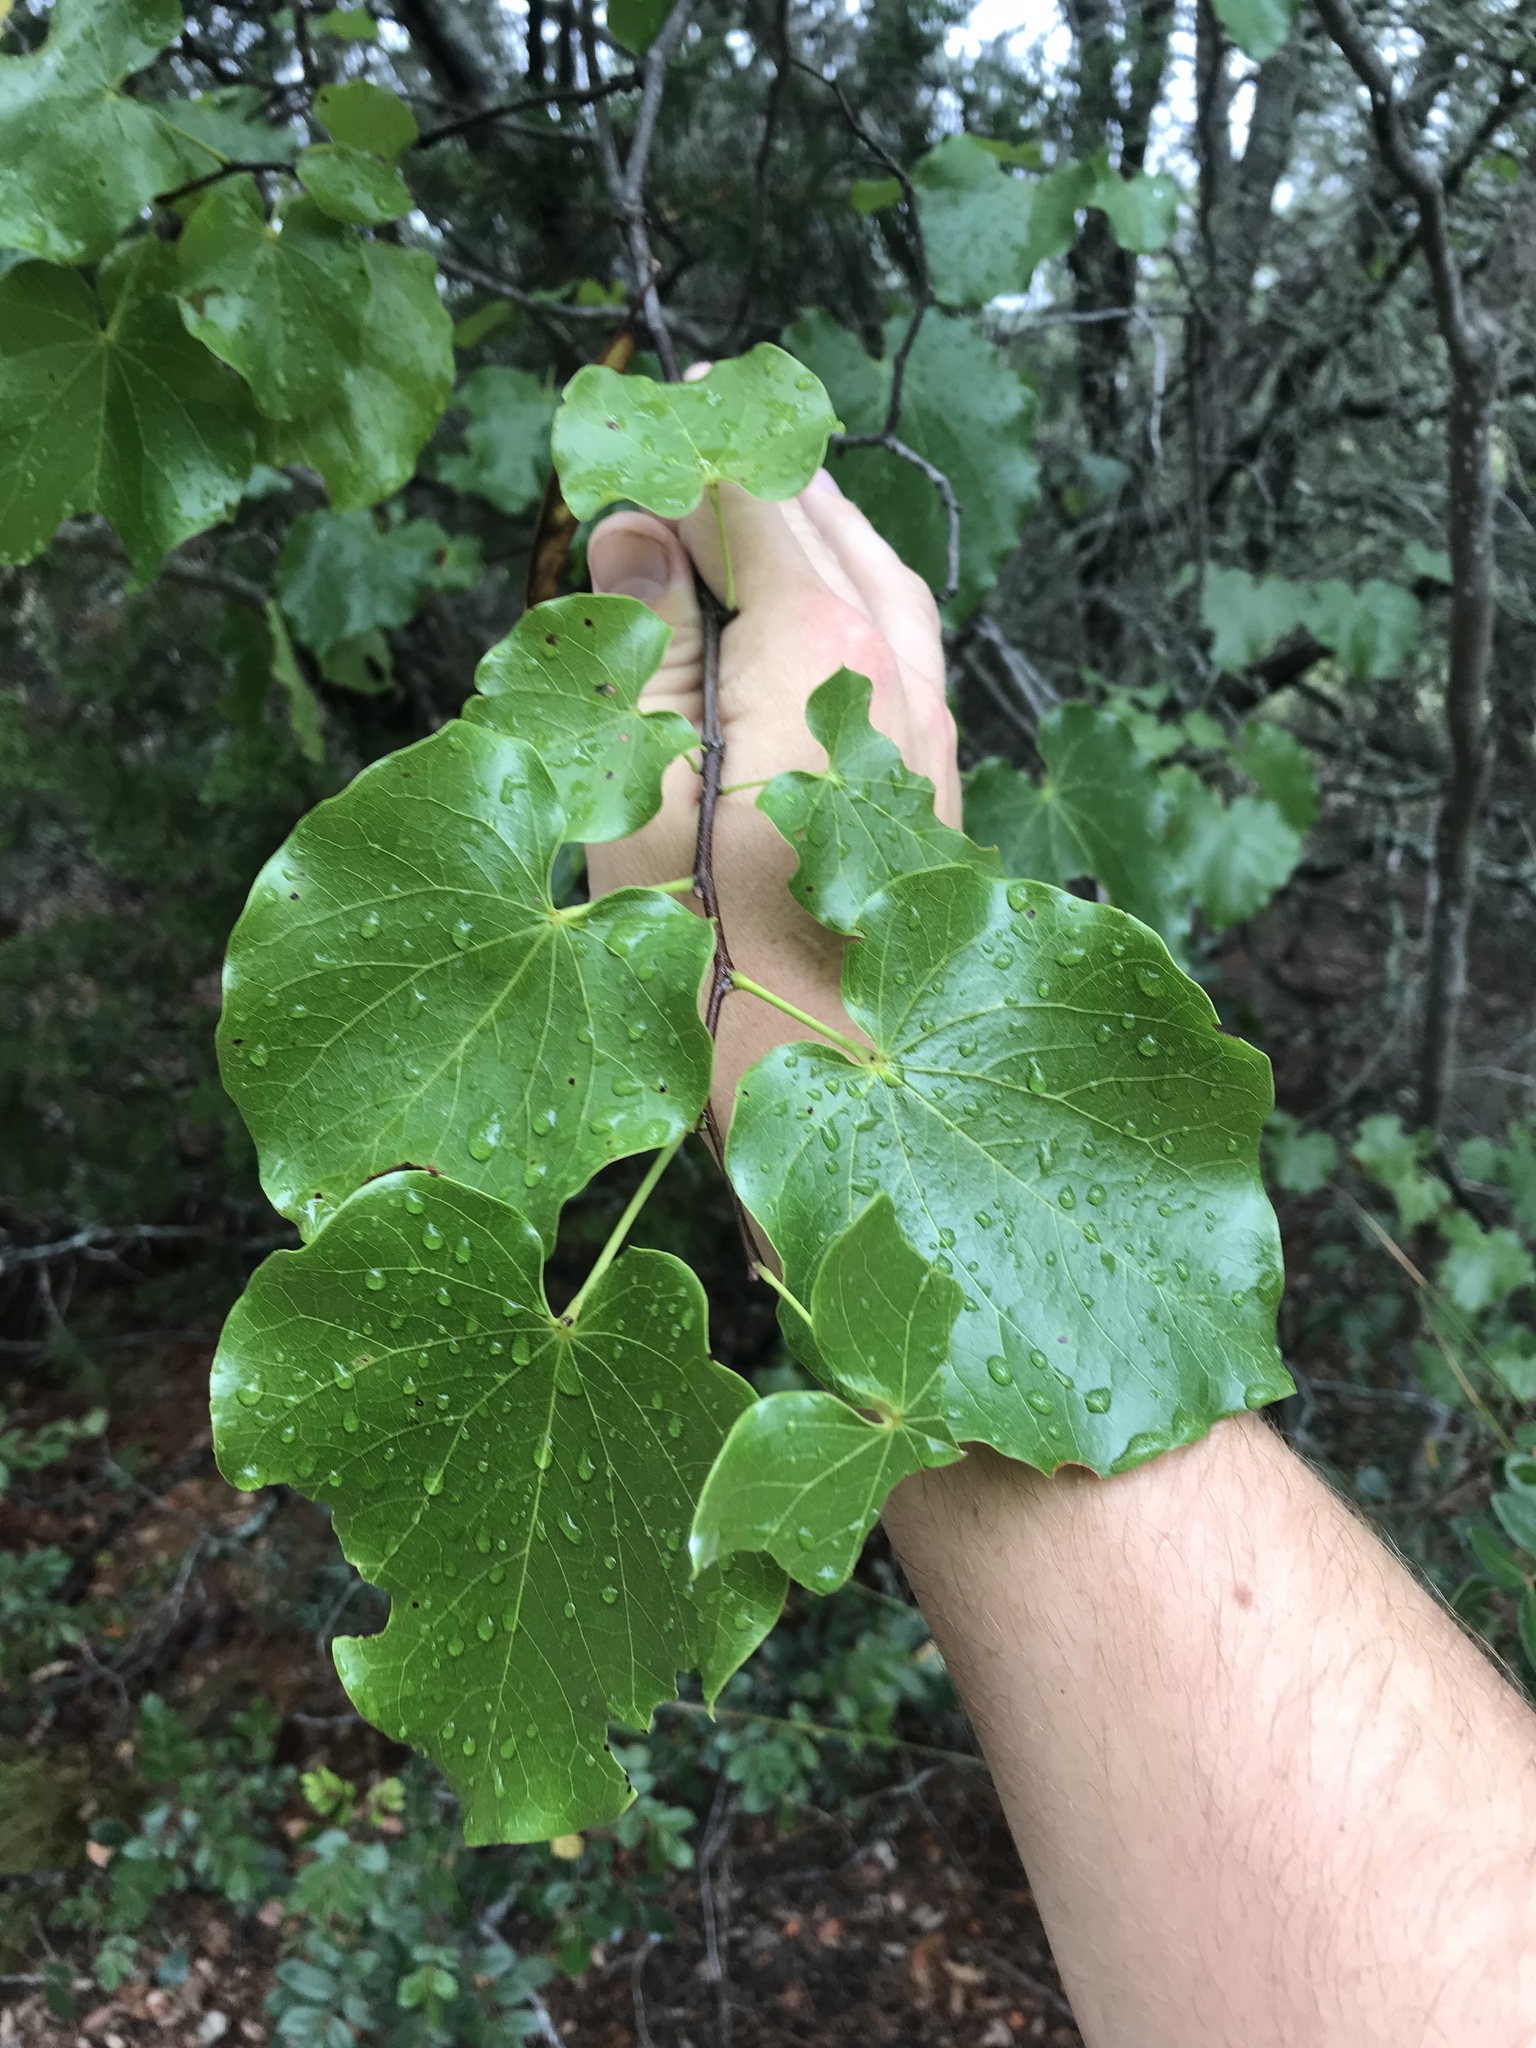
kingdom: Plantae
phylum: Tracheophyta
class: Magnoliopsida
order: Fabales
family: Fabaceae
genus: Cercis
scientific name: Cercis canadensis
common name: Eastern redbud
